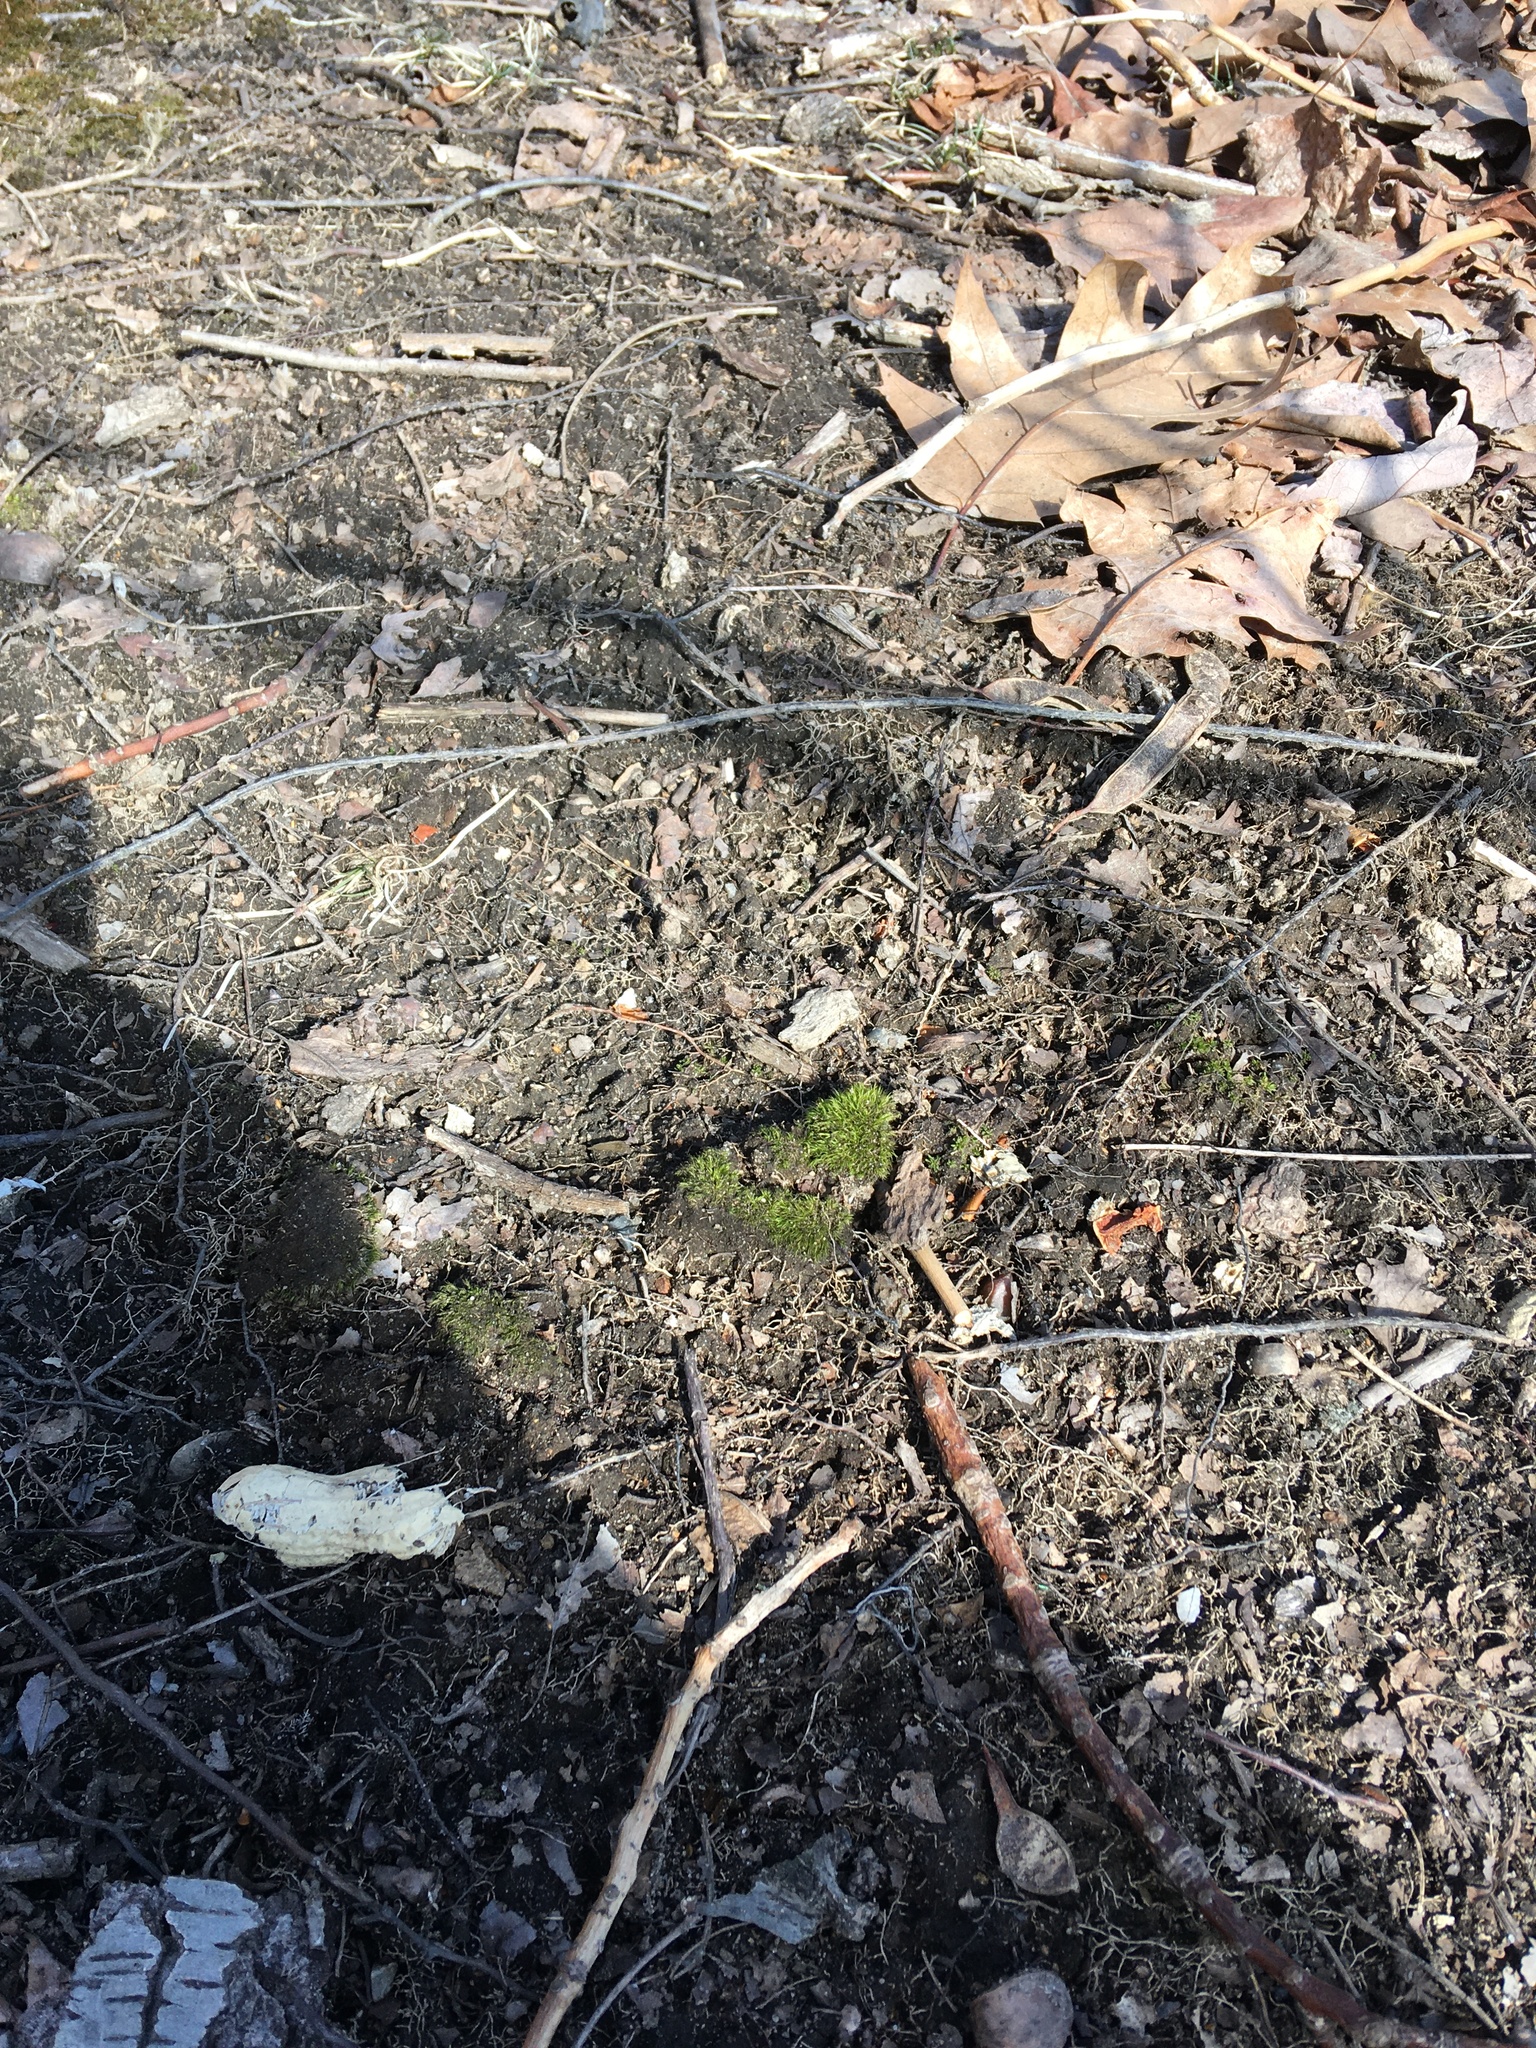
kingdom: Plantae
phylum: Bryophyta
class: Bryopsida
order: Dicranales
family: Dicranaceae
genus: Dicranum
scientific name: Dicranum scoparium
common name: Broom fork-moss
